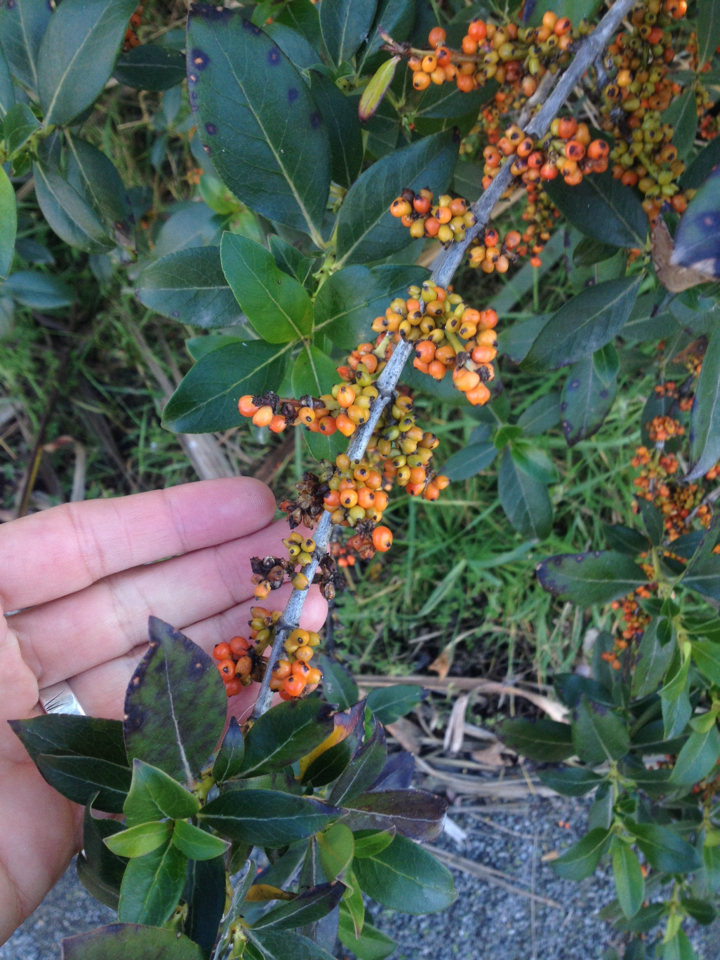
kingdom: Plantae
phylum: Tracheophyta
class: Magnoliopsida
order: Gentianales
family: Rubiaceae
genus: Coprosma
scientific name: Coprosma robusta
